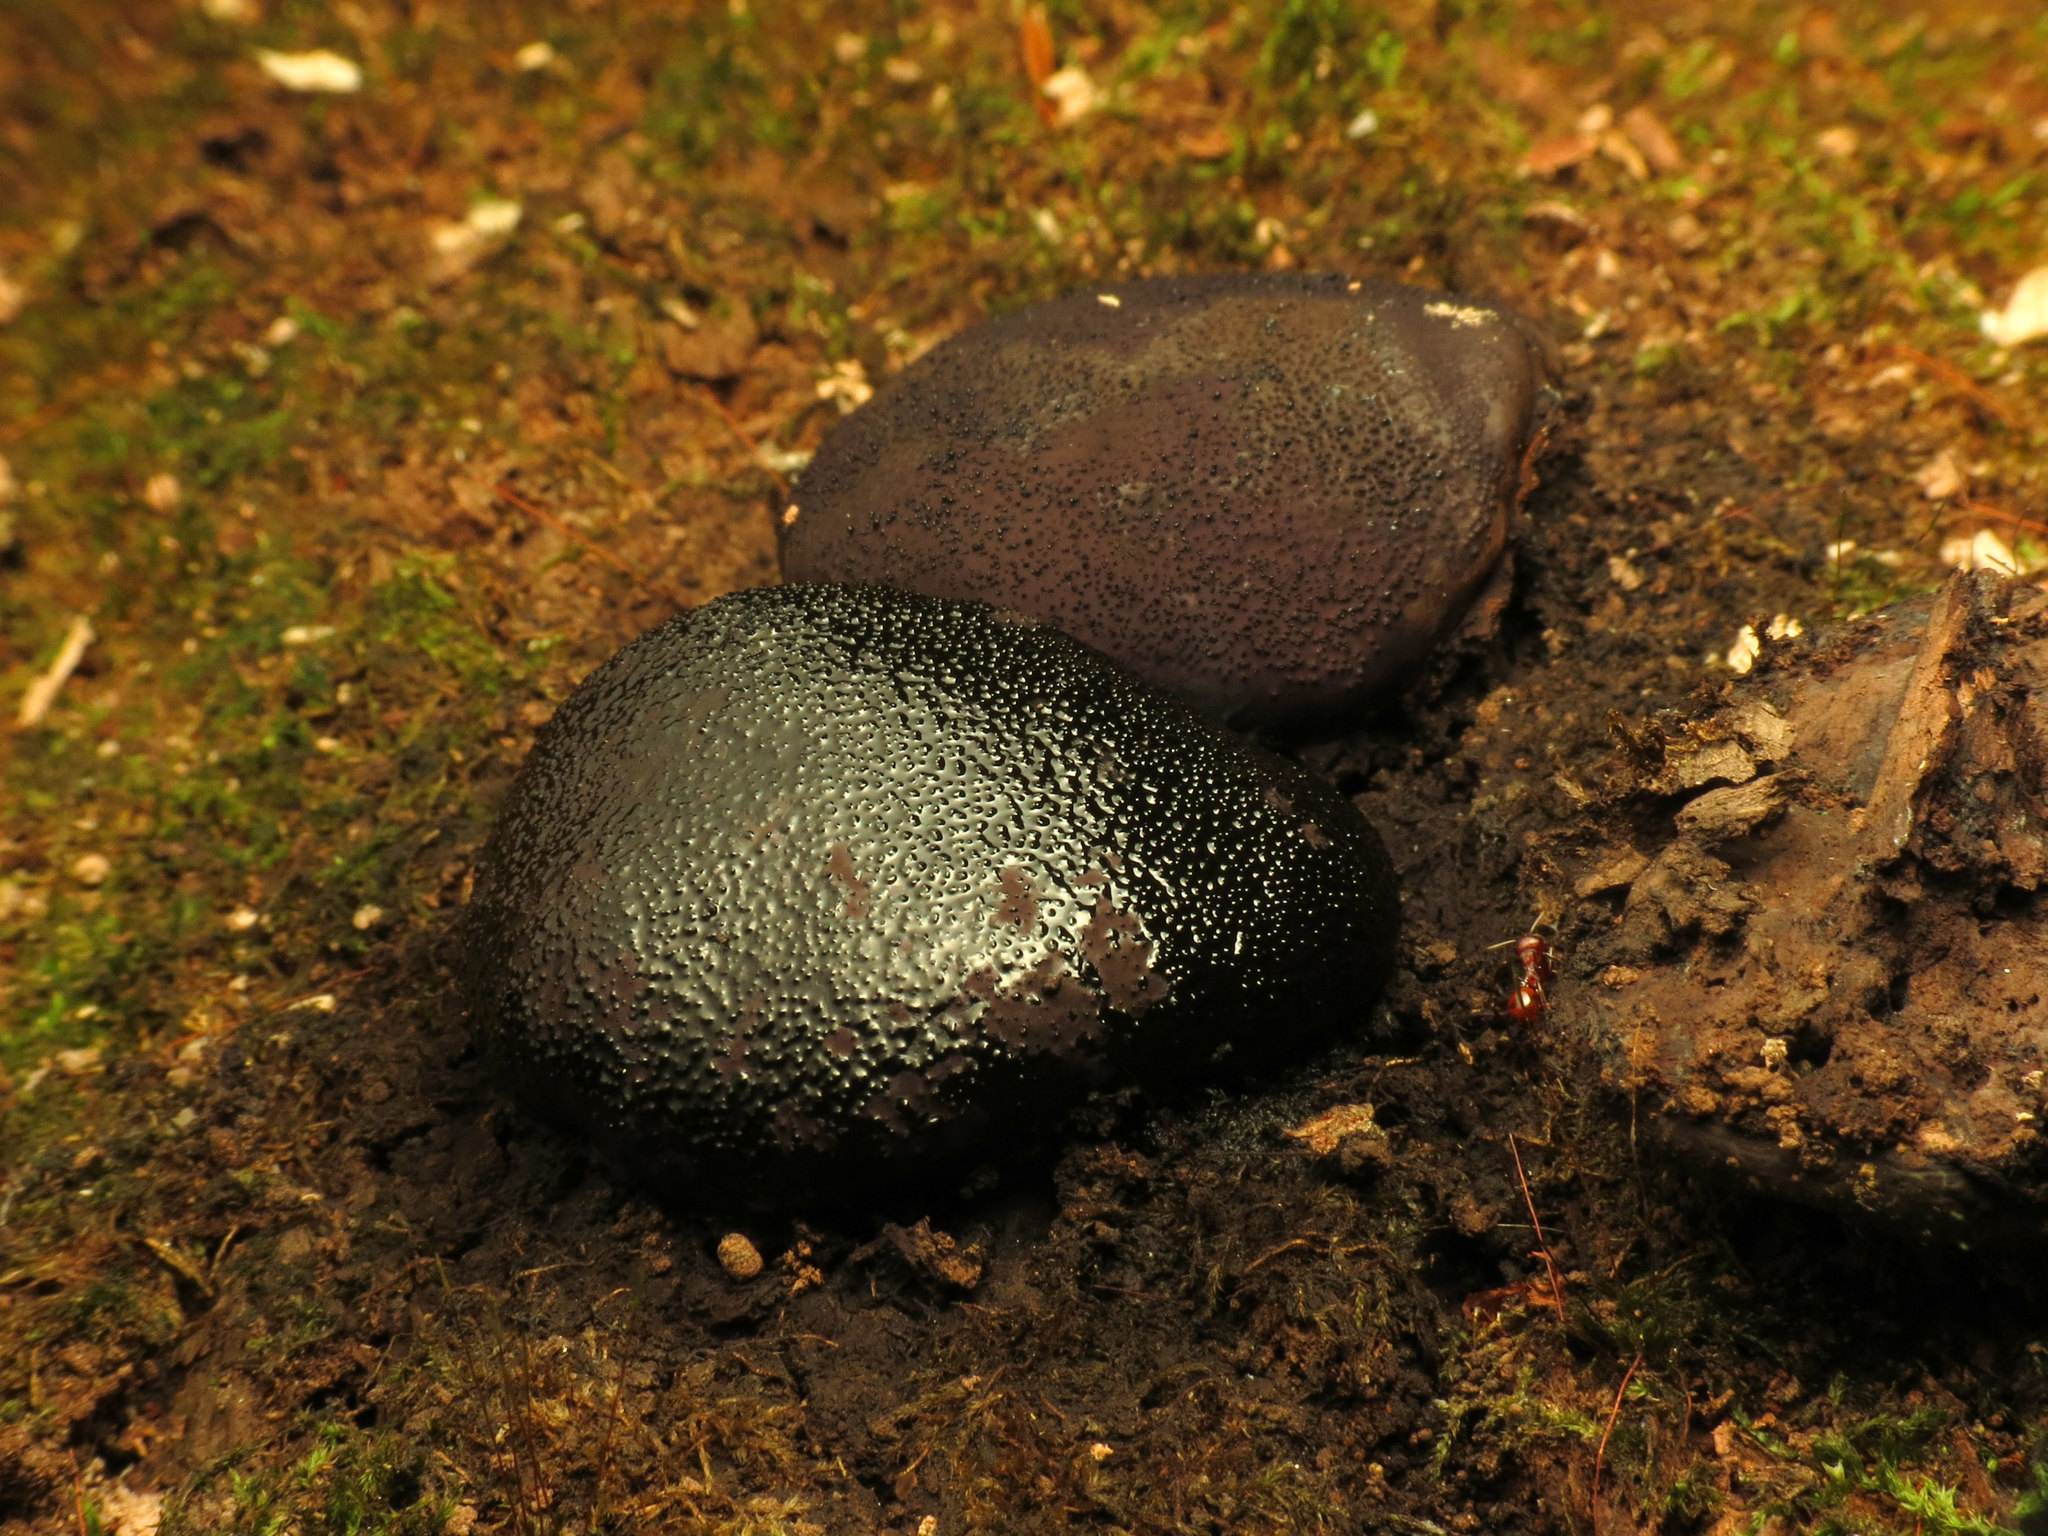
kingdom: Fungi
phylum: Ascomycota
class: Sordariomycetes
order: Boliniales
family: Boliniaceae
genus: Camarops
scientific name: Camarops petersii
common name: Dog's nose fungus
